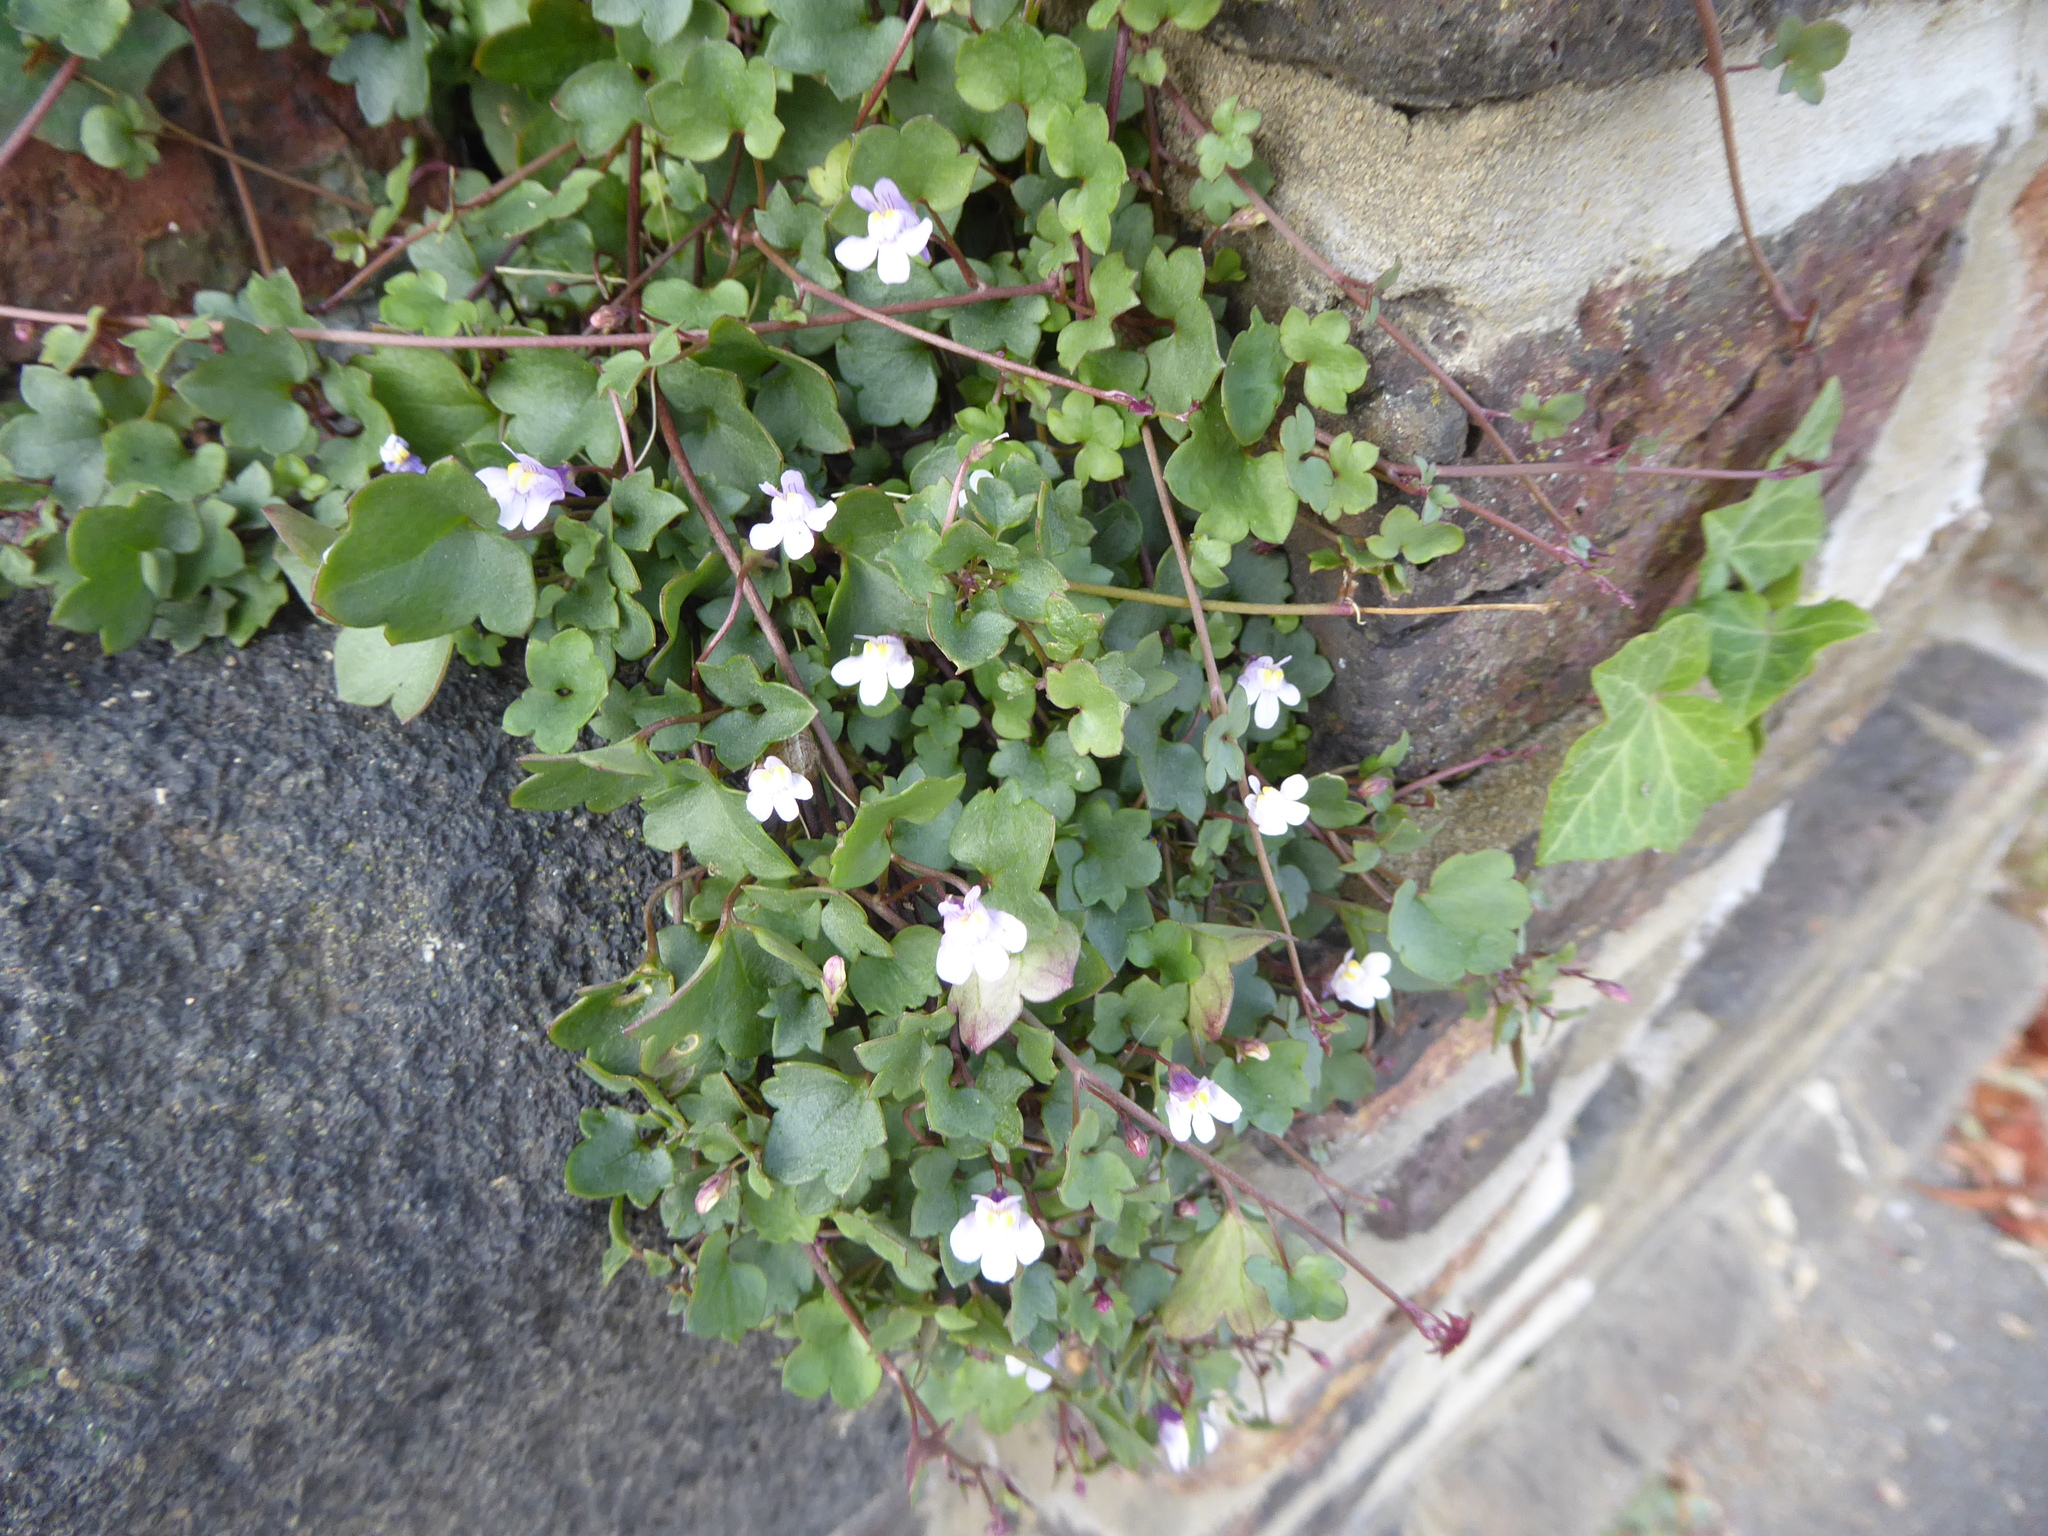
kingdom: Plantae
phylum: Tracheophyta
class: Magnoliopsida
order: Lamiales
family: Plantaginaceae
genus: Cymbalaria
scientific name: Cymbalaria muralis
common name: Ivy-leaved toadflax
